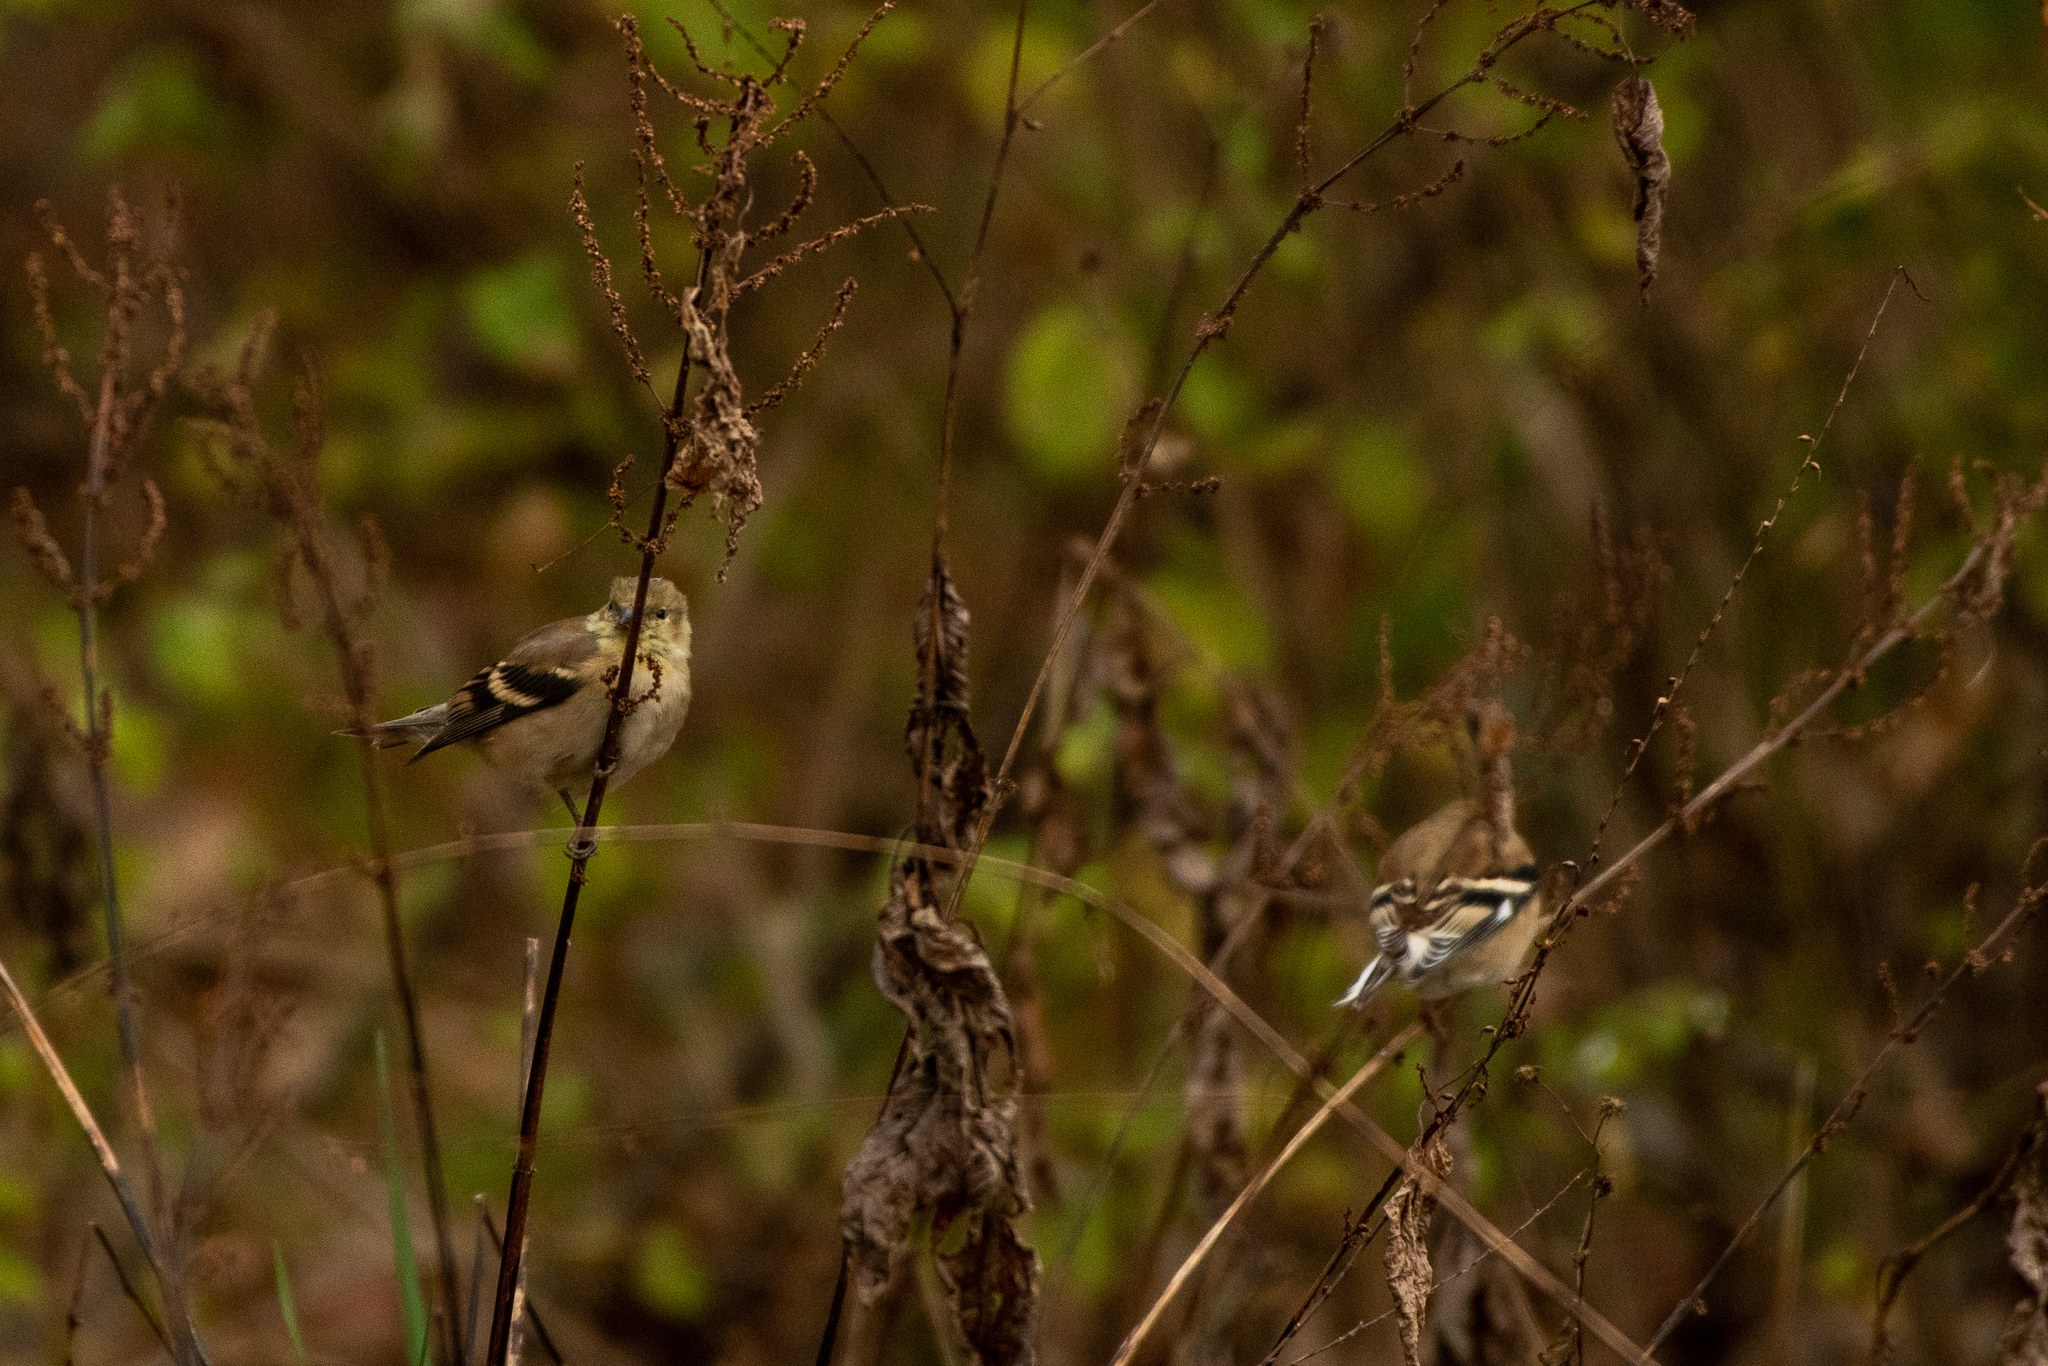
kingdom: Animalia
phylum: Chordata
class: Aves
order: Passeriformes
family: Fringillidae
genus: Spinus
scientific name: Spinus tristis
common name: American goldfinch
